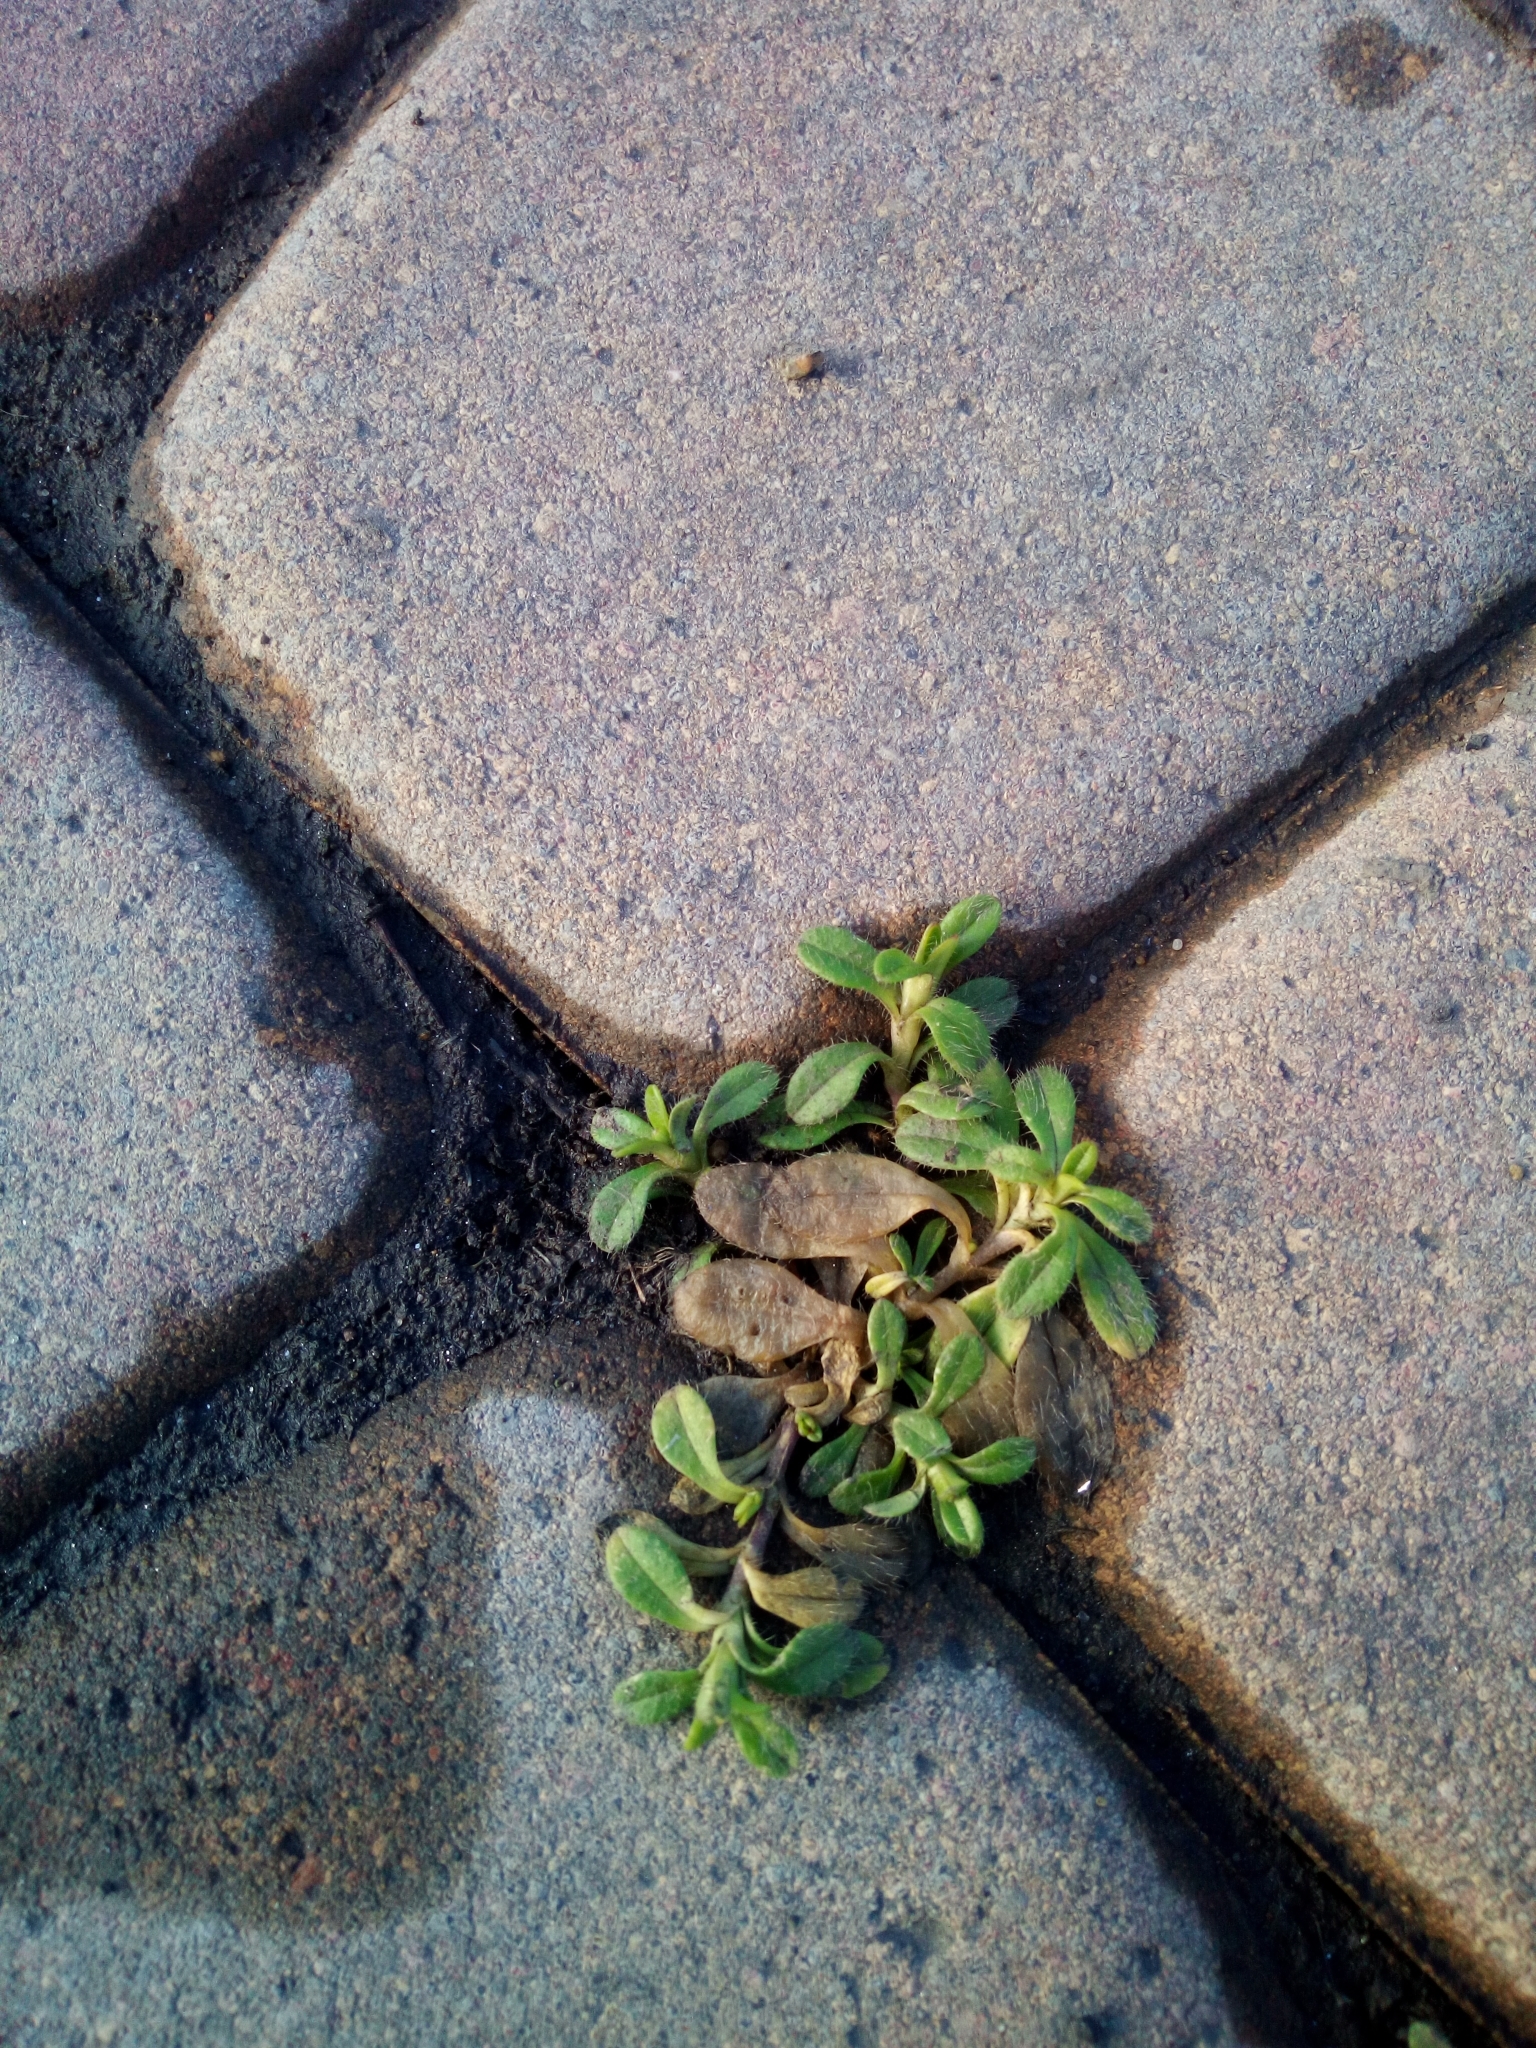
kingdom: Plantae
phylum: Tracheophyta
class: Magnoliopsida
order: Caryophyllales
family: Caryophyllaceae
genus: Cerastium
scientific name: Cerastium holosteoides
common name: Big chickweed
